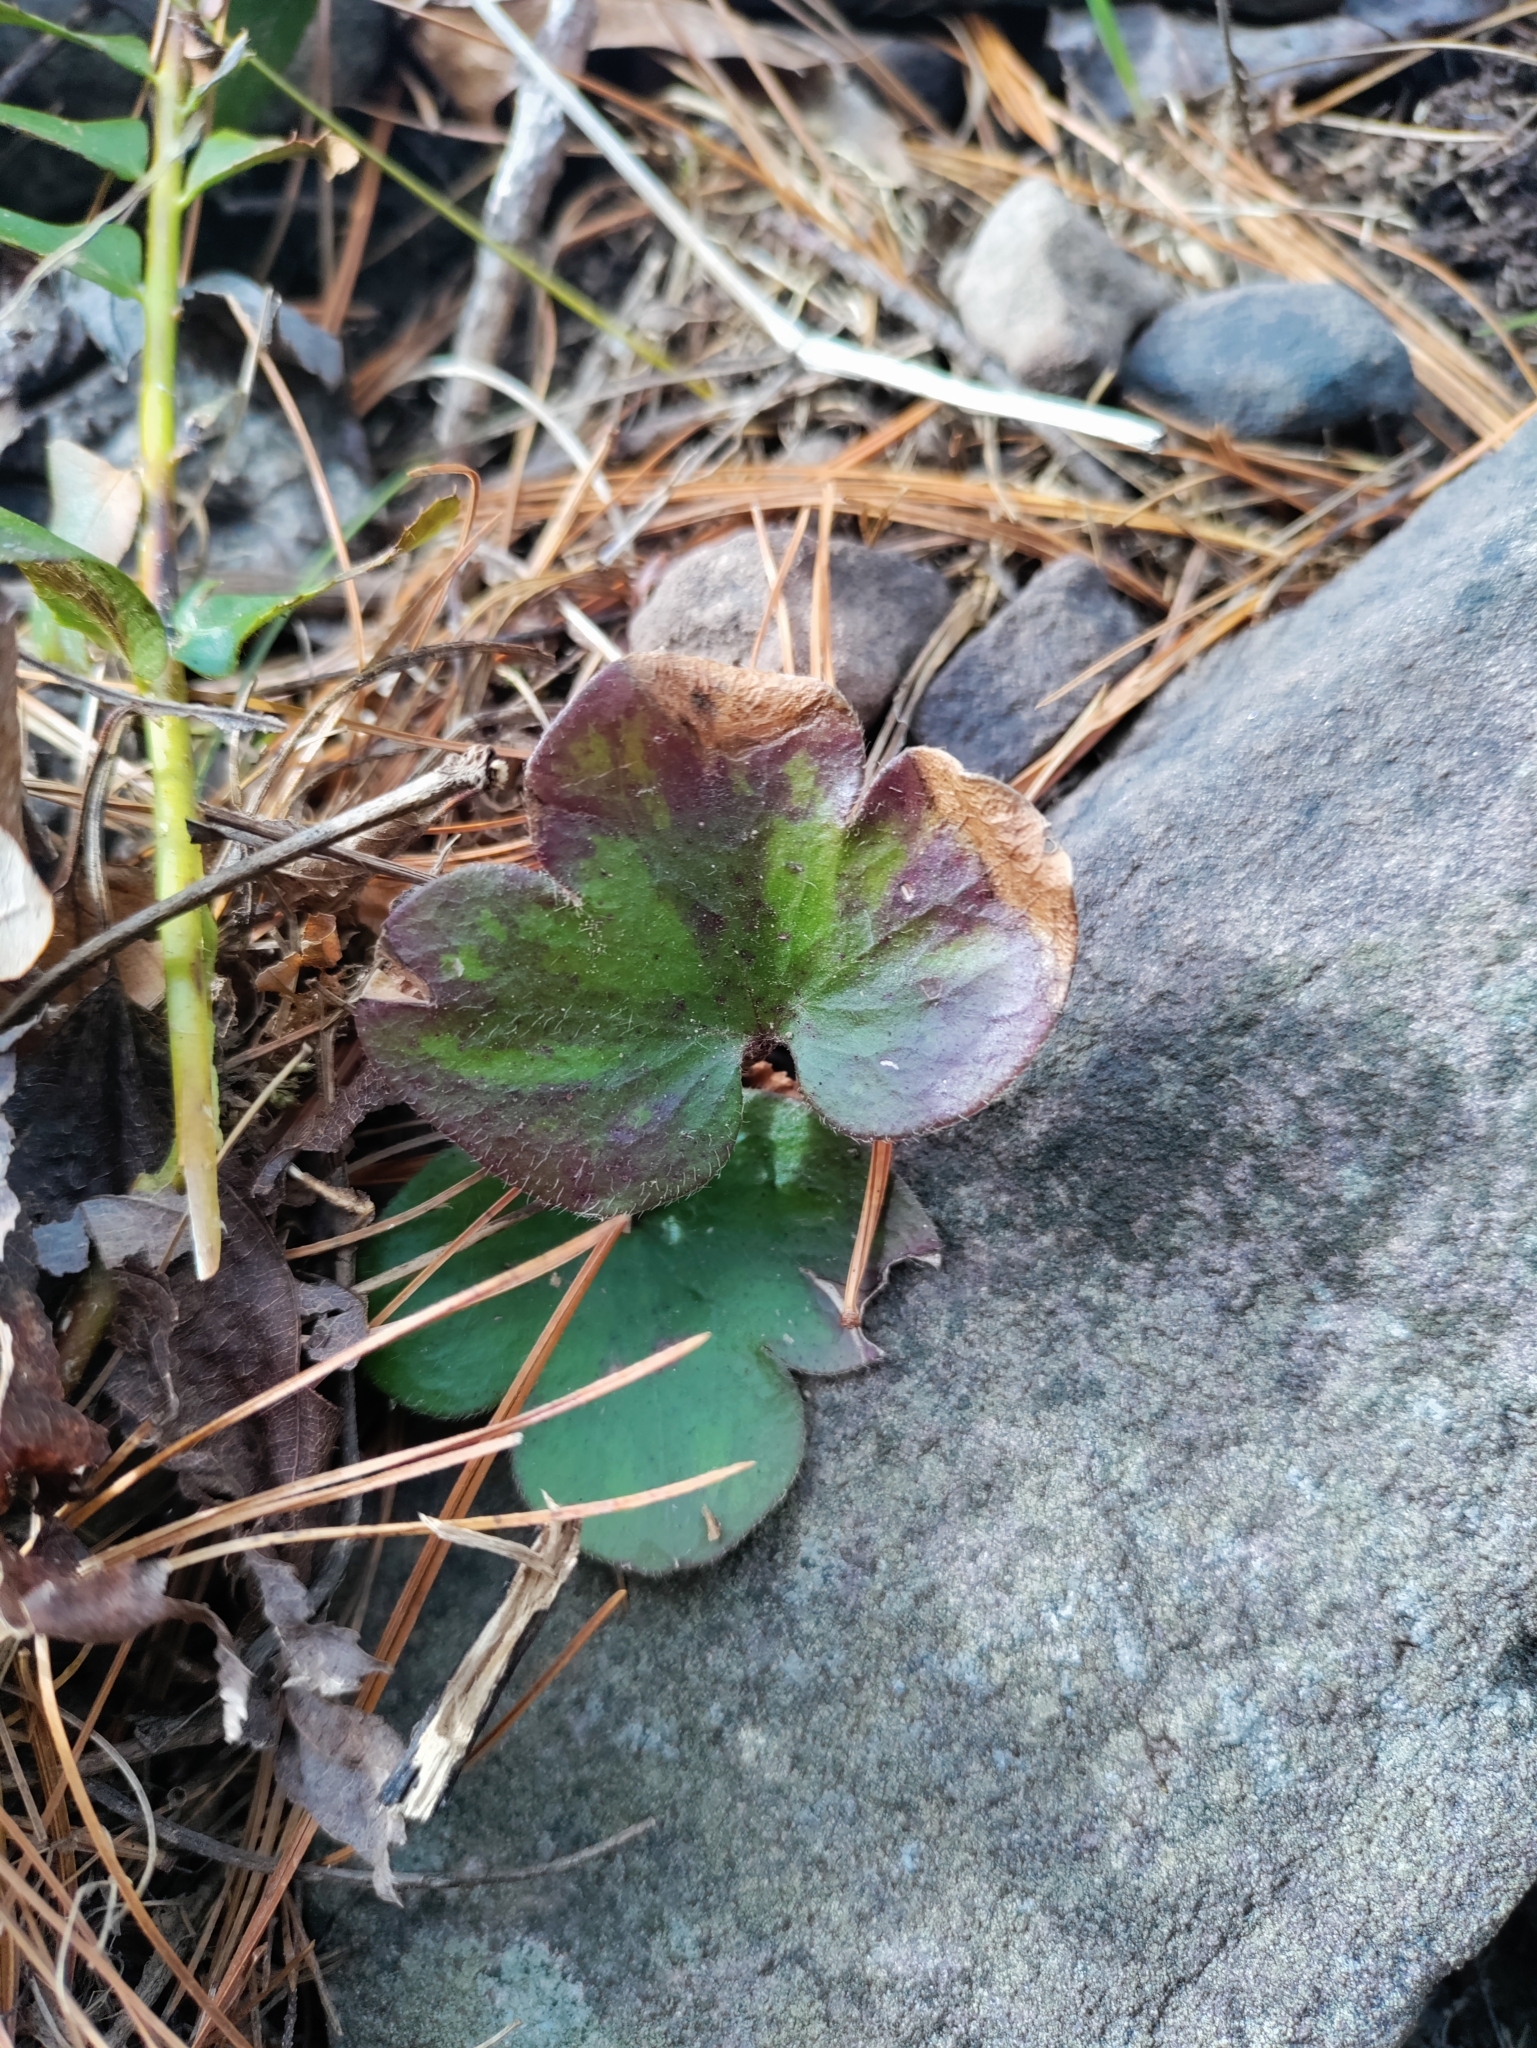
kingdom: Plantae
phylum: Tracheophyta
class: Magnoliopsida
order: Ranunculales
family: Ranunculaceae
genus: Hepatica
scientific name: Hepatica americana
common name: American hepatica
